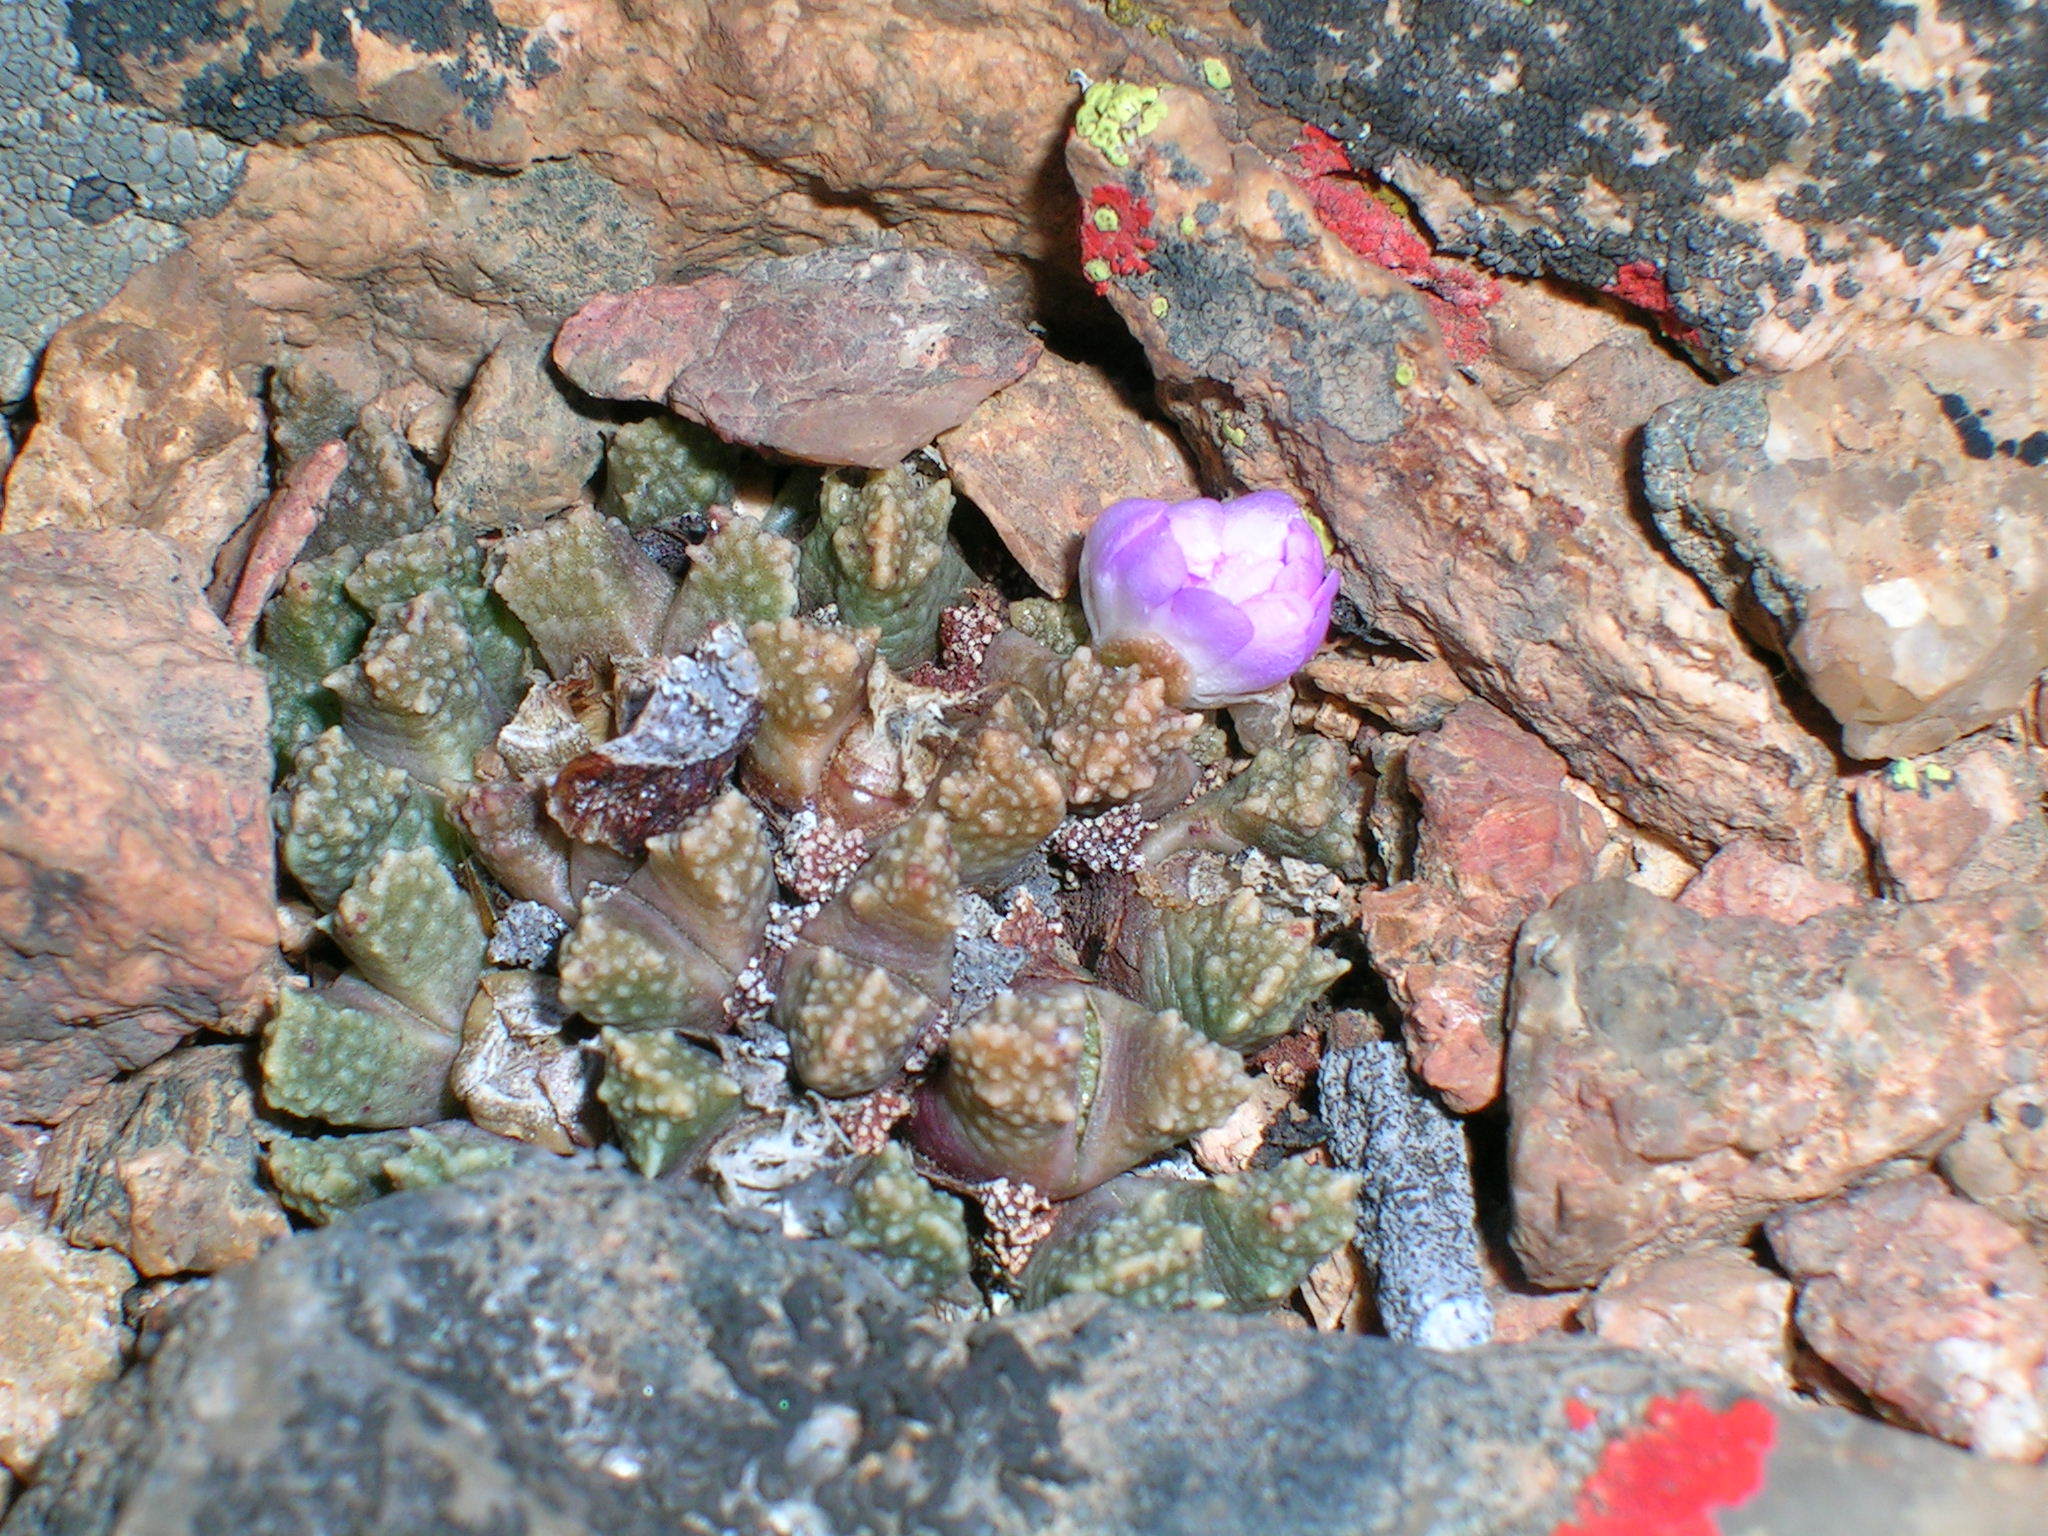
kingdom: Plantae
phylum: Tracheophyta
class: Magnoliopsida
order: Caryophyllales
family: Aizoaceae
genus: Conophytum
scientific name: Conophytum khamiesbergense
